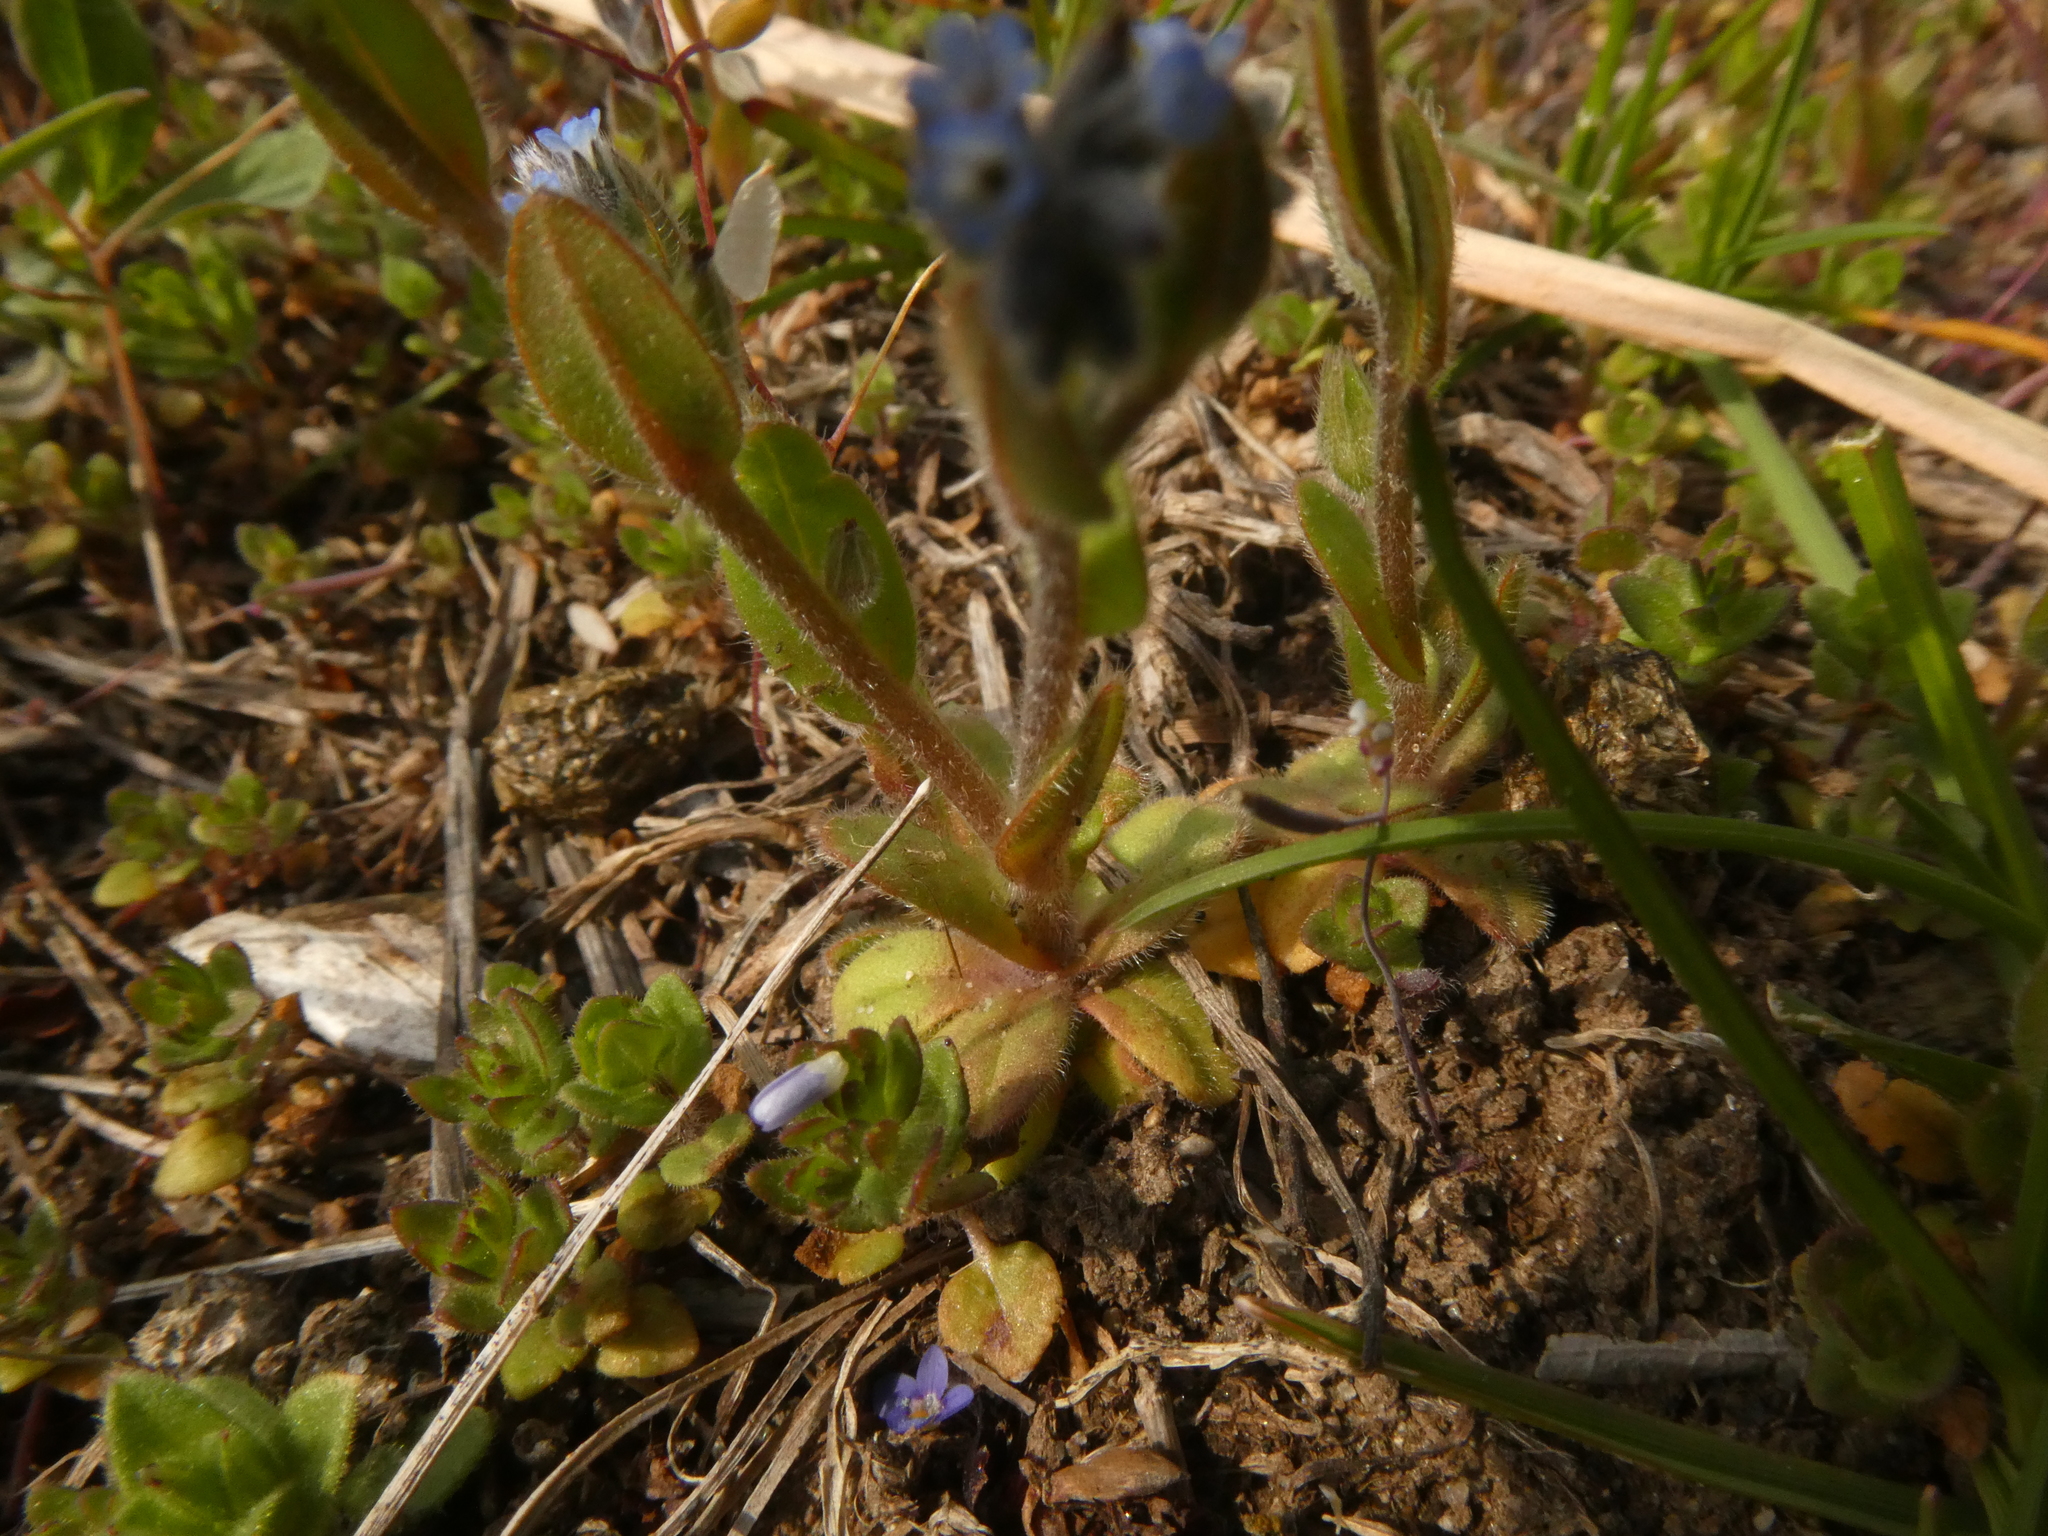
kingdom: Plantae
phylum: Tracheophyta
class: Magnoliopsida
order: Boraginales
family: Boraginaceae
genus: Myosotis
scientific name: Myosotis stricta
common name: Strict forget-me-not
